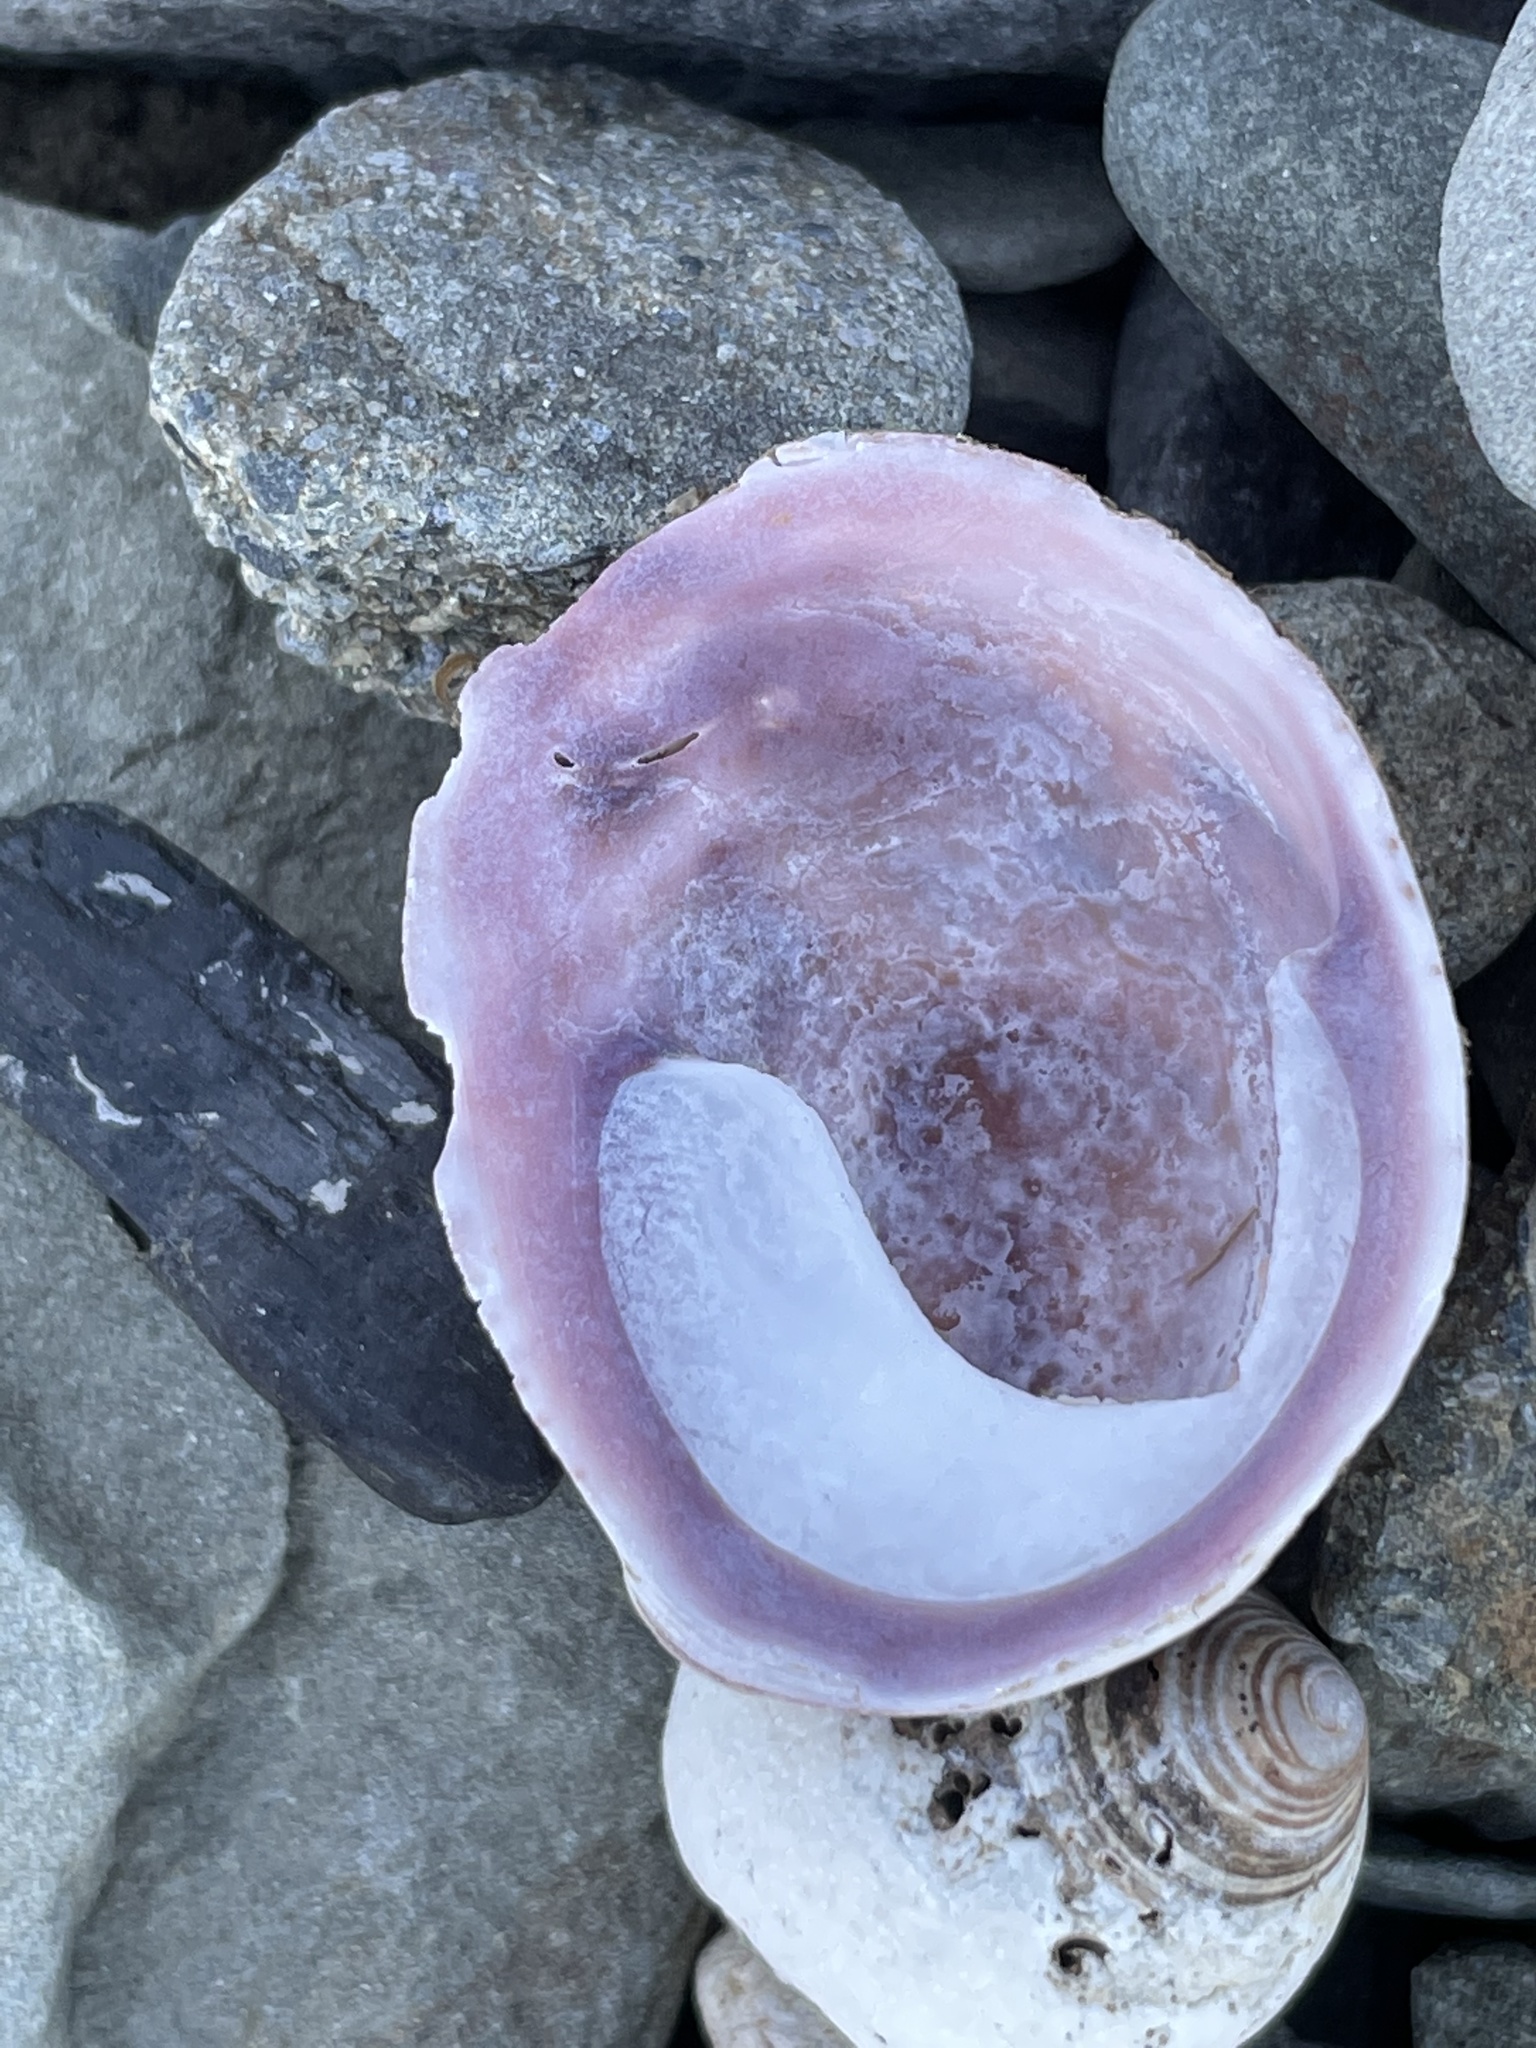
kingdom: Animalia
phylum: Mollusca
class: Gastropoda
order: Littorinimorpha
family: Calyptraeidae
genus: Crepidula
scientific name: Crepidula fornicata
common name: Slipper limpet
